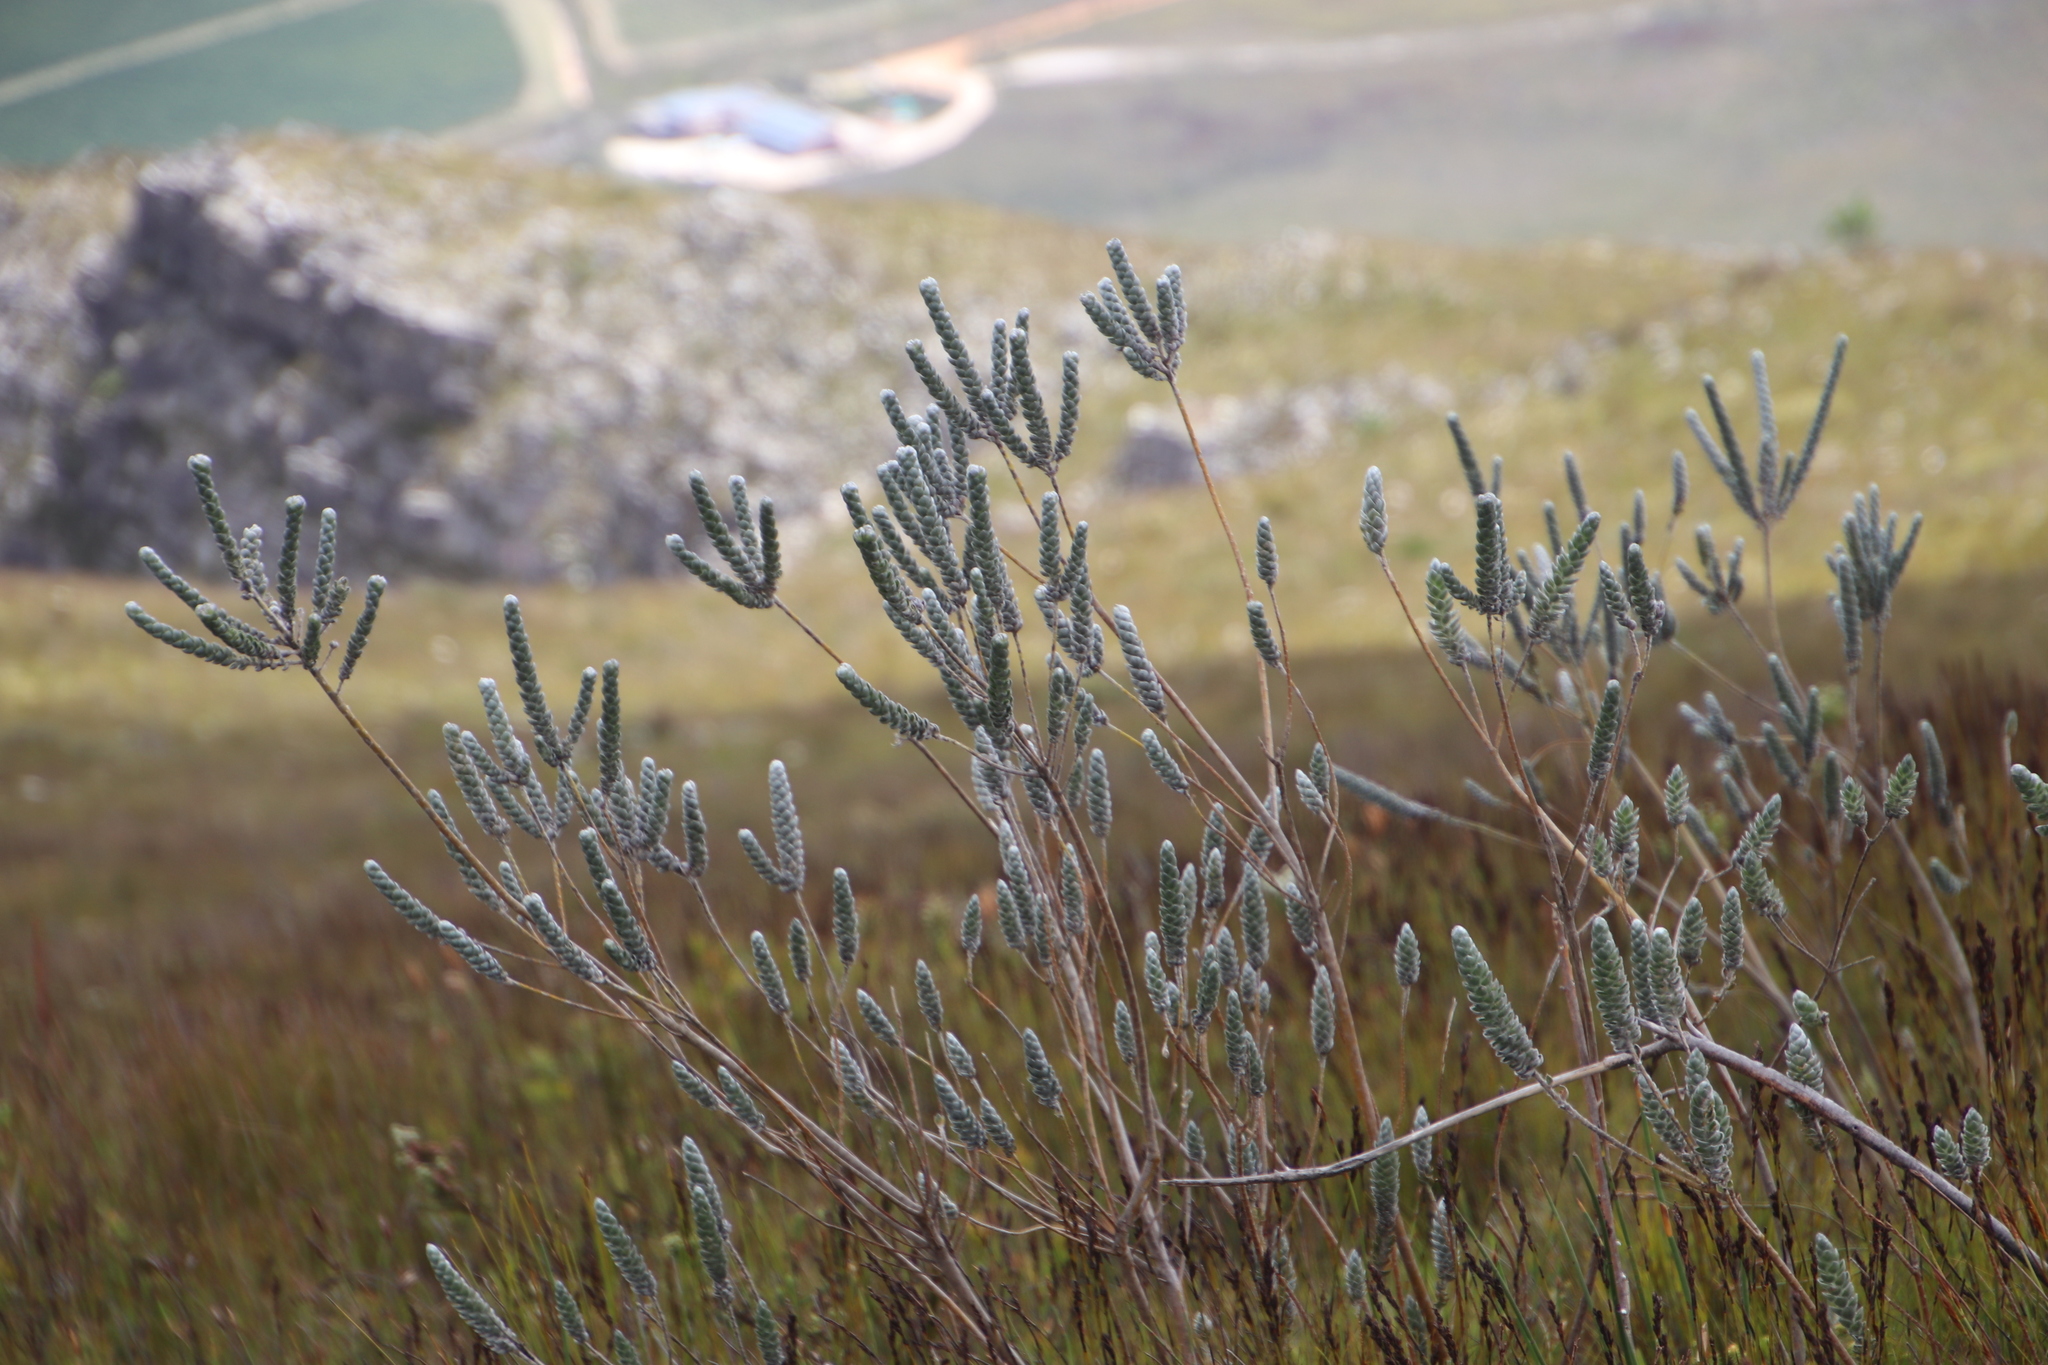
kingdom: Plantae
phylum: Tracheophyta
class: Magnoliopsida
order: Fabales
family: Fabaceae
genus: Liparia
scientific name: Liparia vestita
